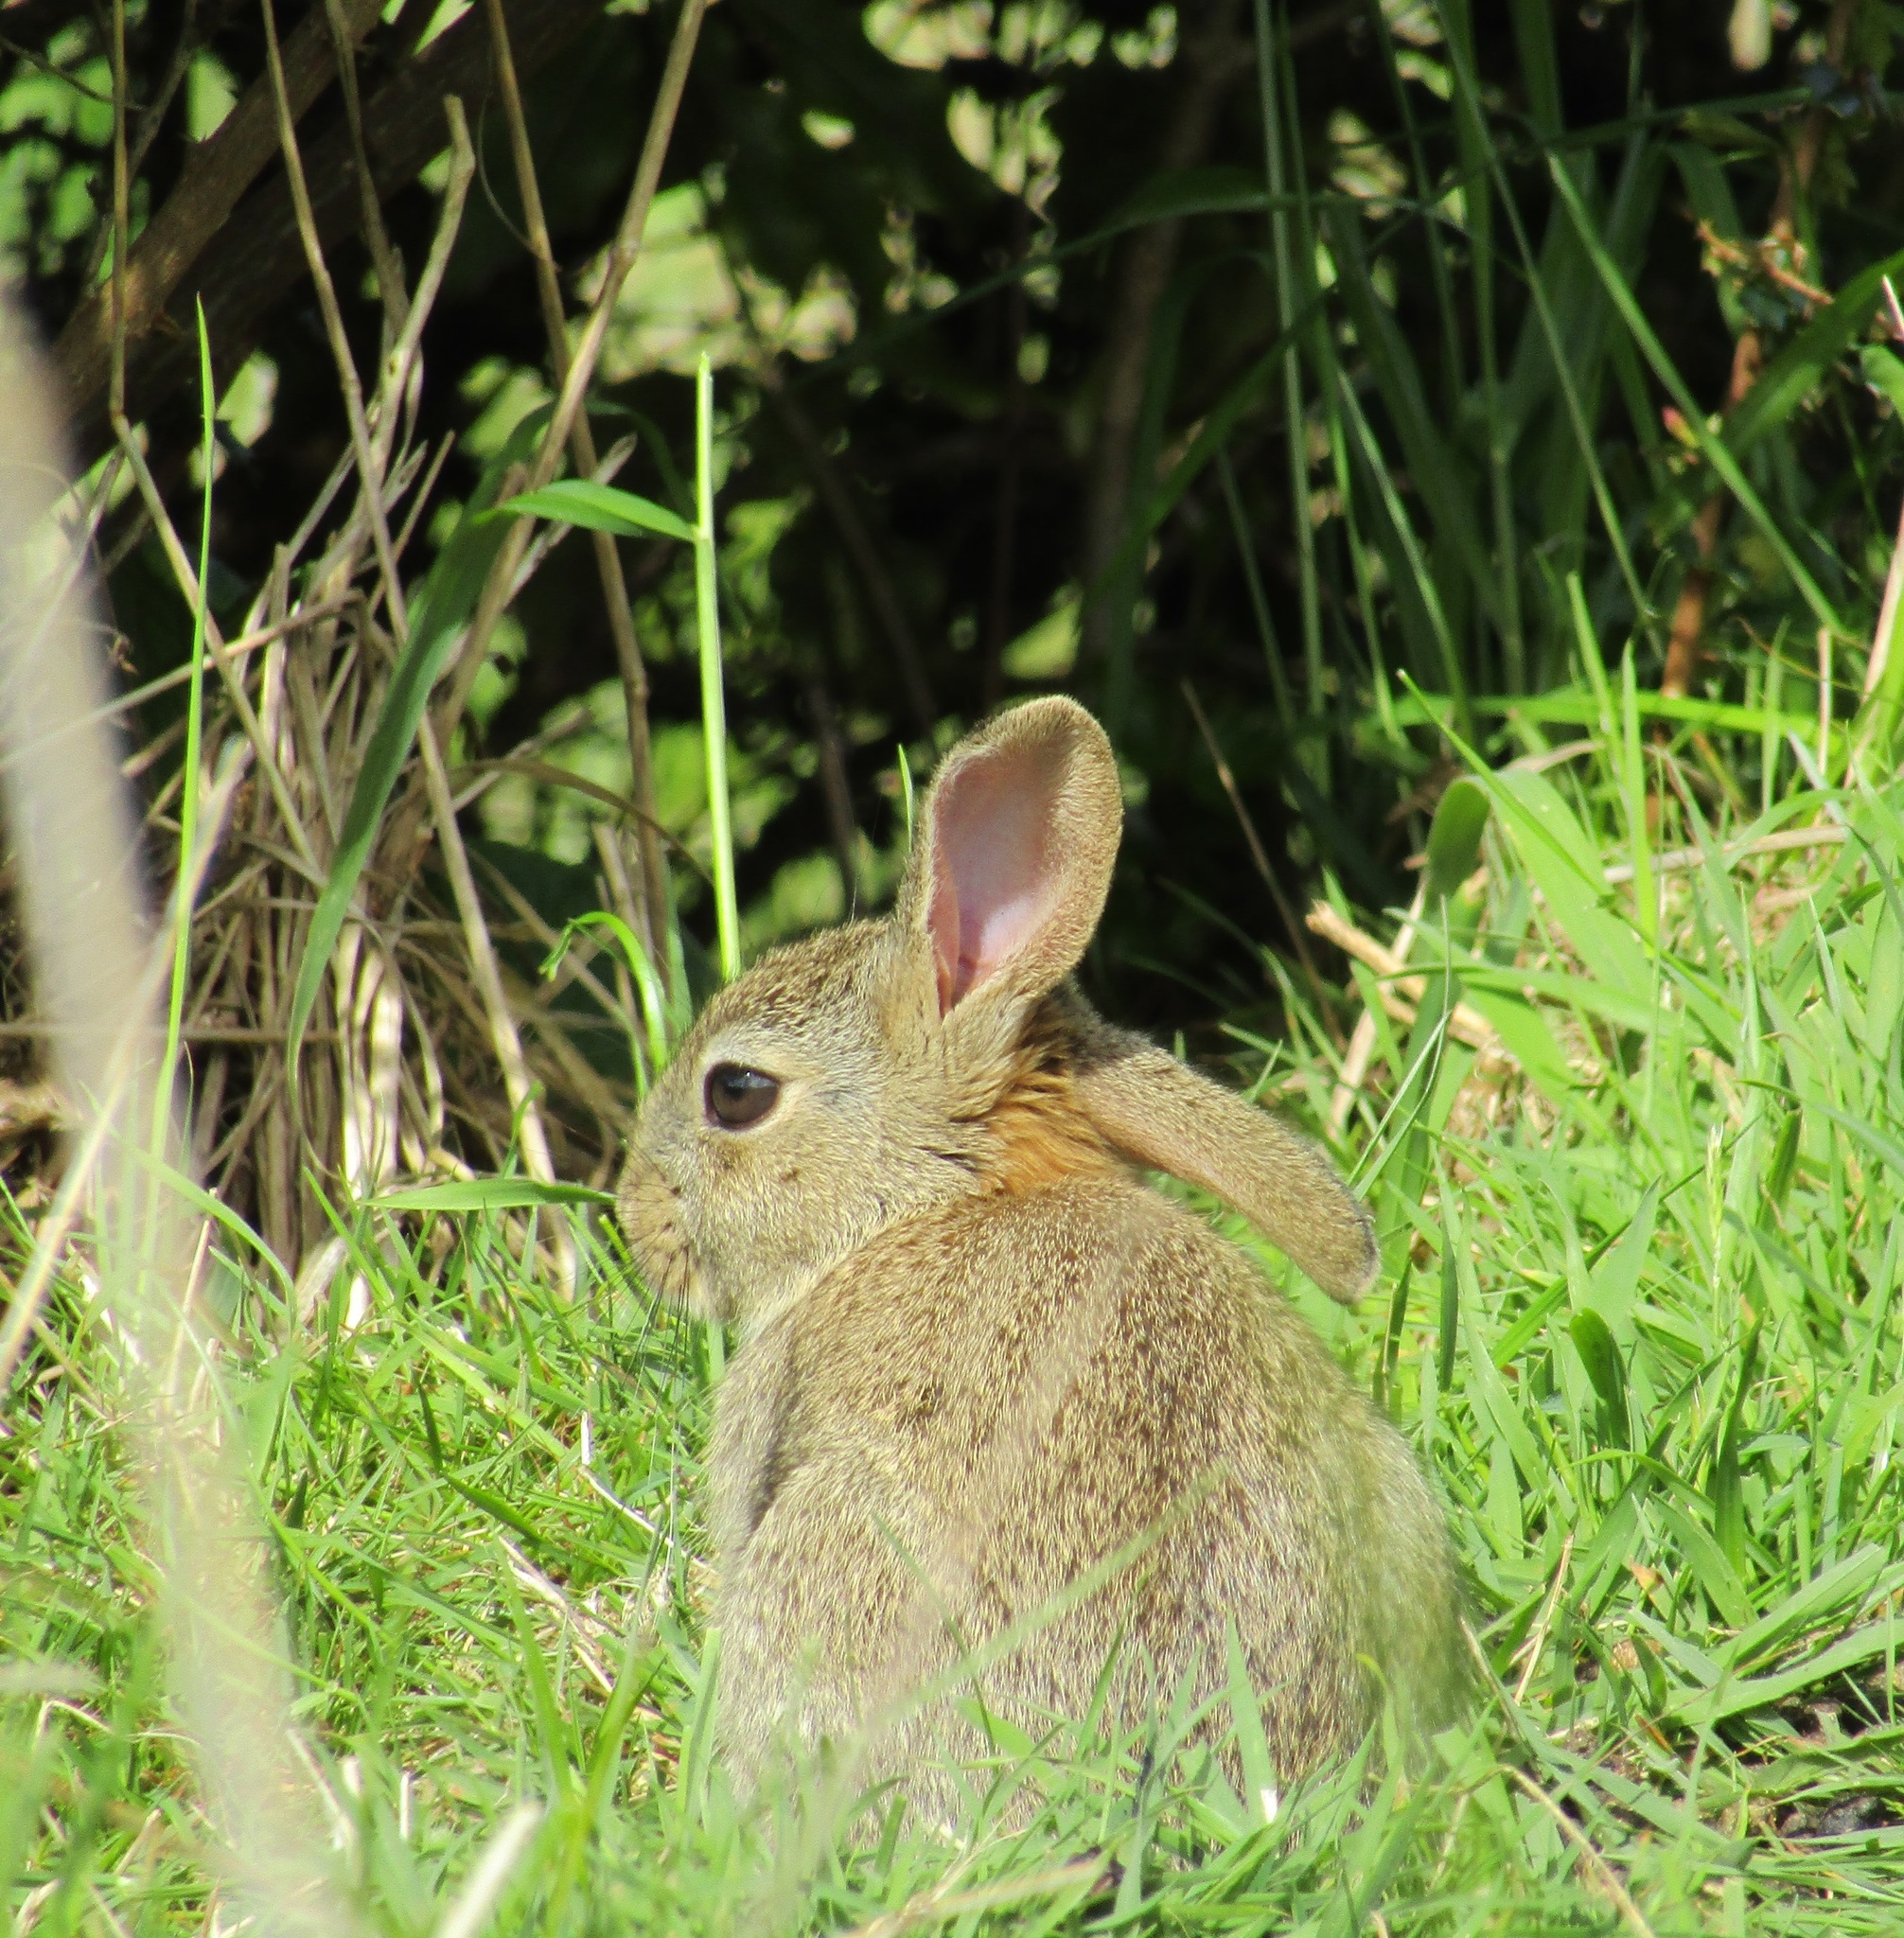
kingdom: Animalia
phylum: Chordata
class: Mammalia
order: Lagomorpha
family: Leporidae
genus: Oryctolagus
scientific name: Oryctolagus cuniculus
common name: European rabbit
